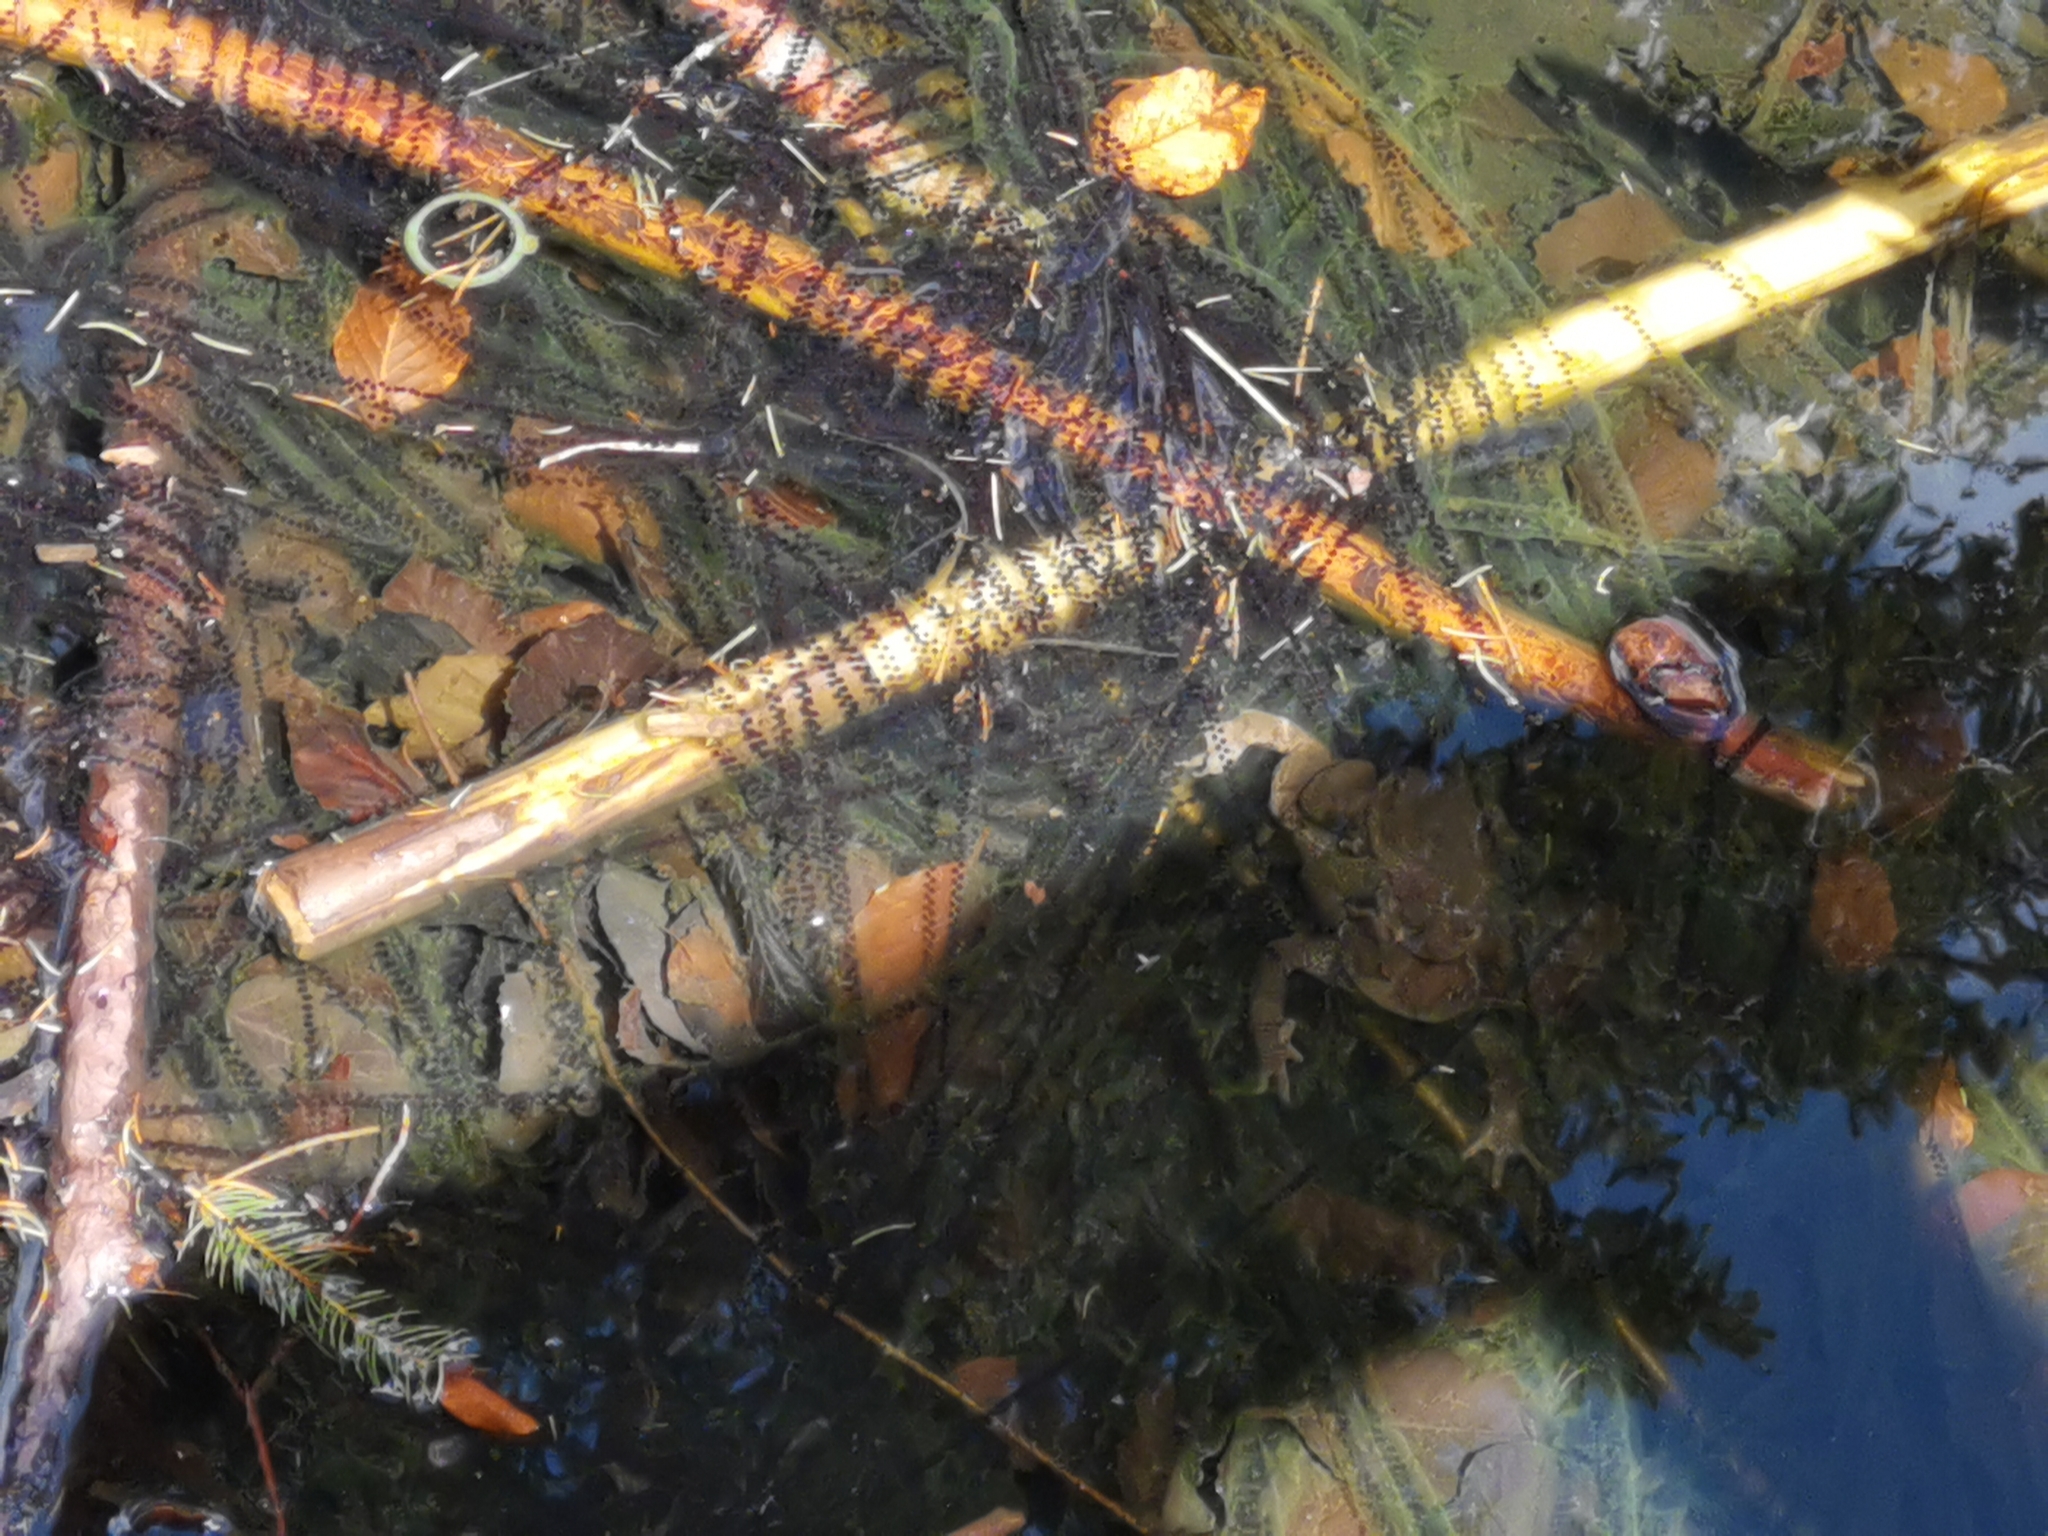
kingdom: Animalia
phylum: Chordata
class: Amphibia
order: Anura
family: Bufonidae
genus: Bufo
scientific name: Bufo bufo
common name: Common toad
